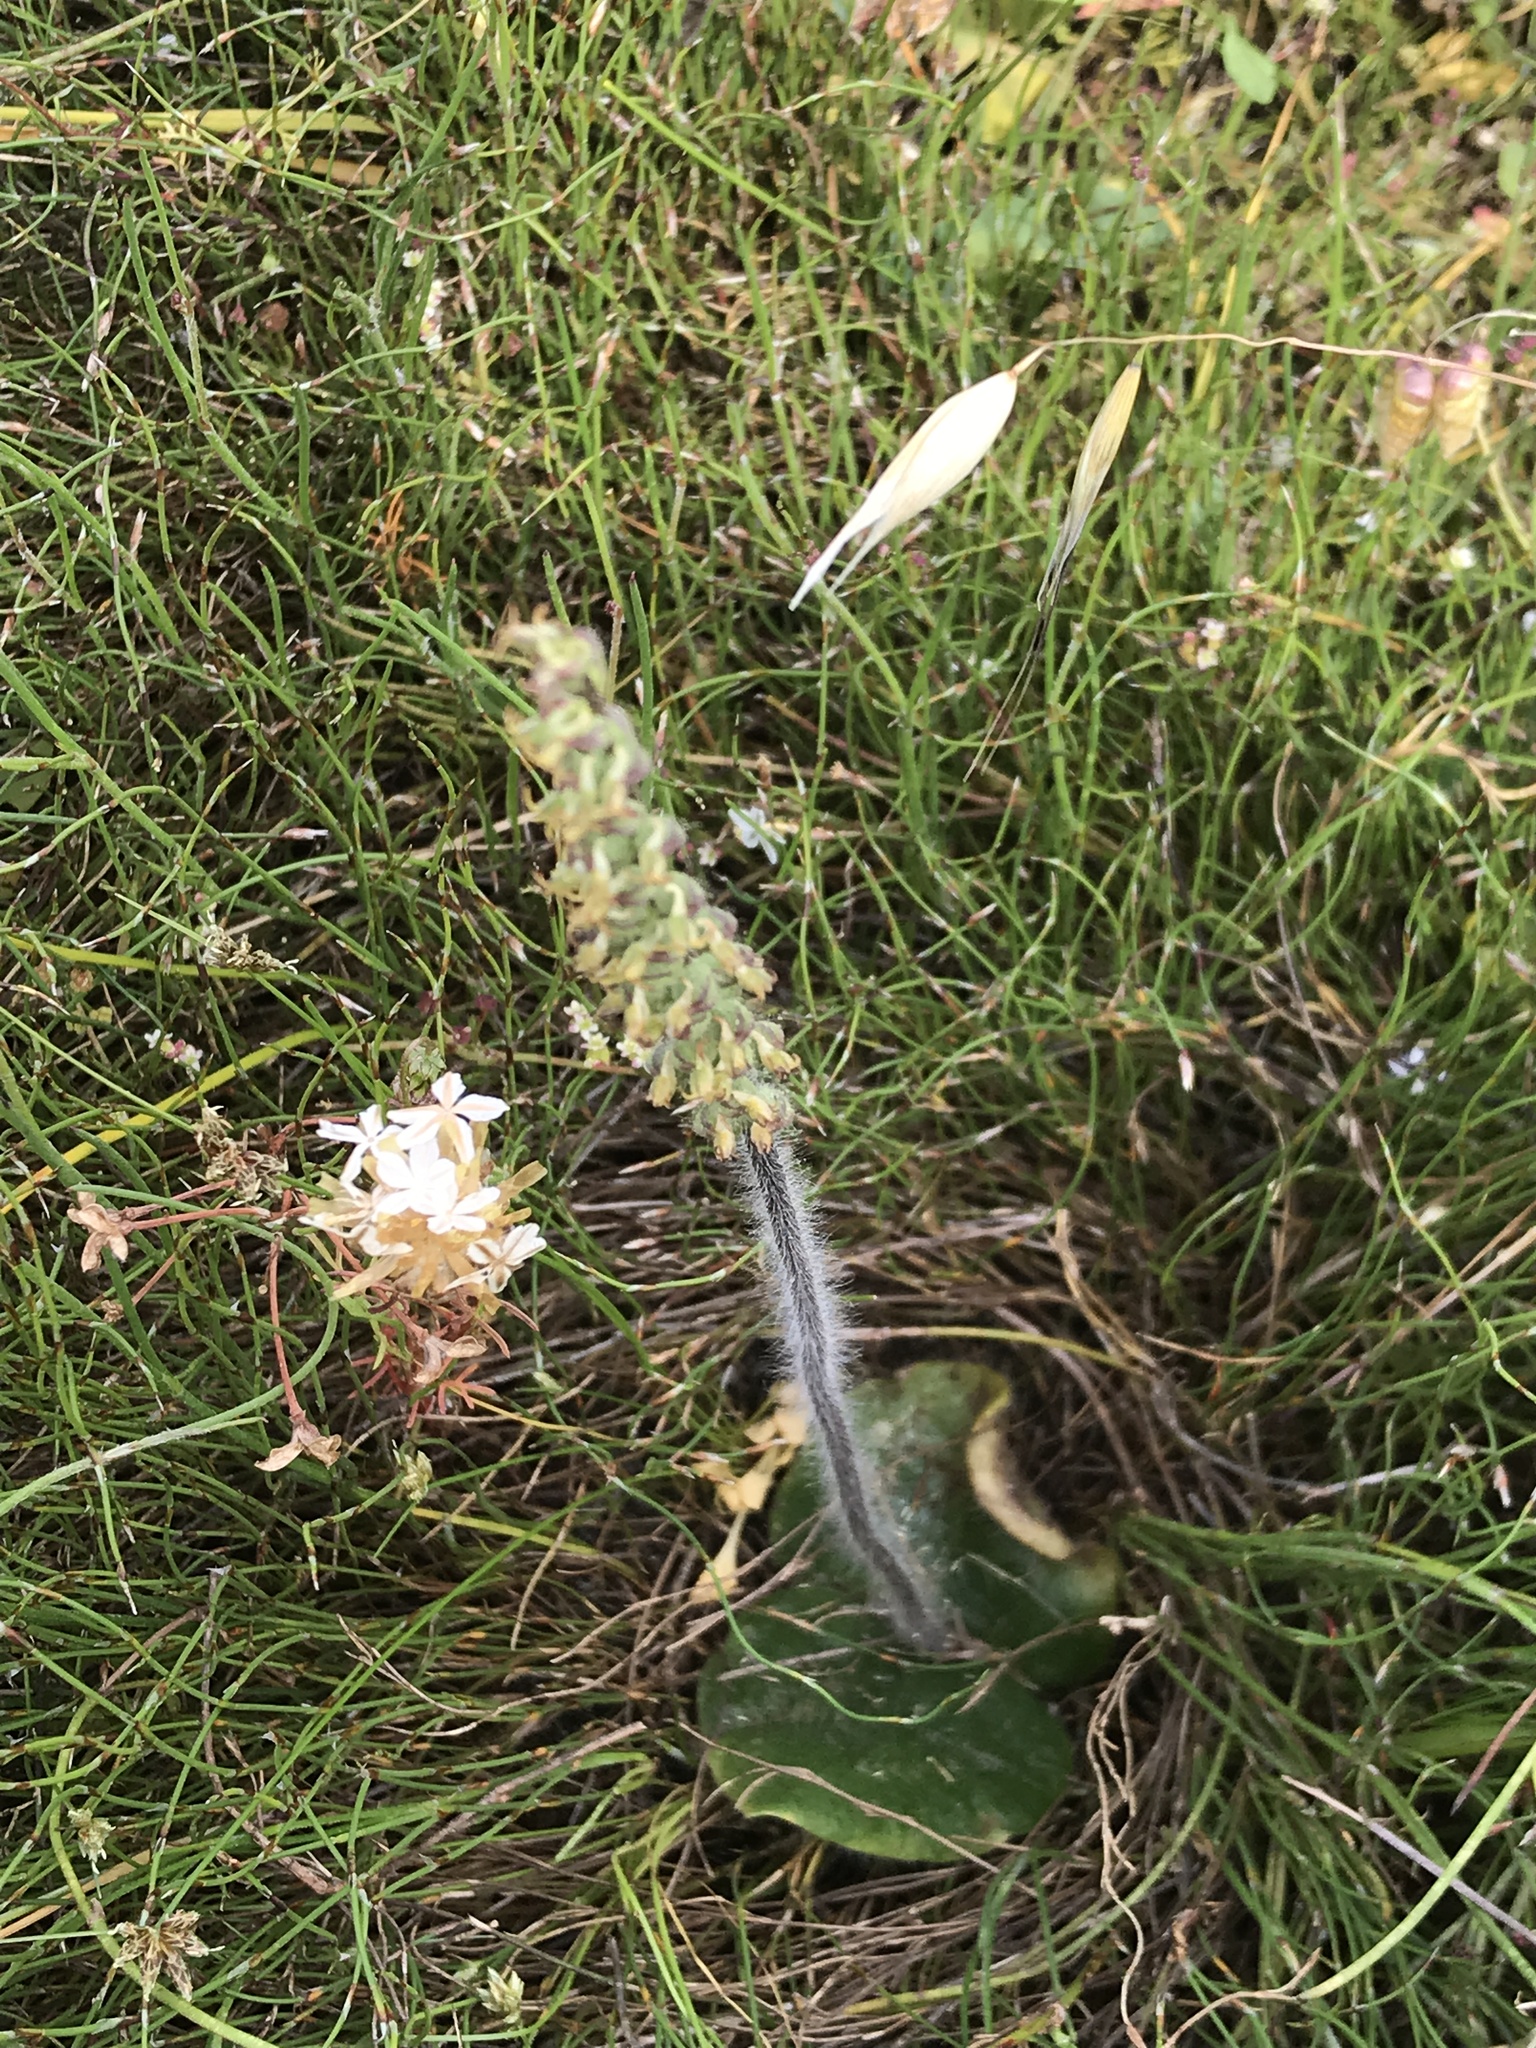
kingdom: Plantae
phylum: Tracheophyta
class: Liliopsida
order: Asparagales
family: Orchidaceae
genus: Holothrix
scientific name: Holothrix villosa
